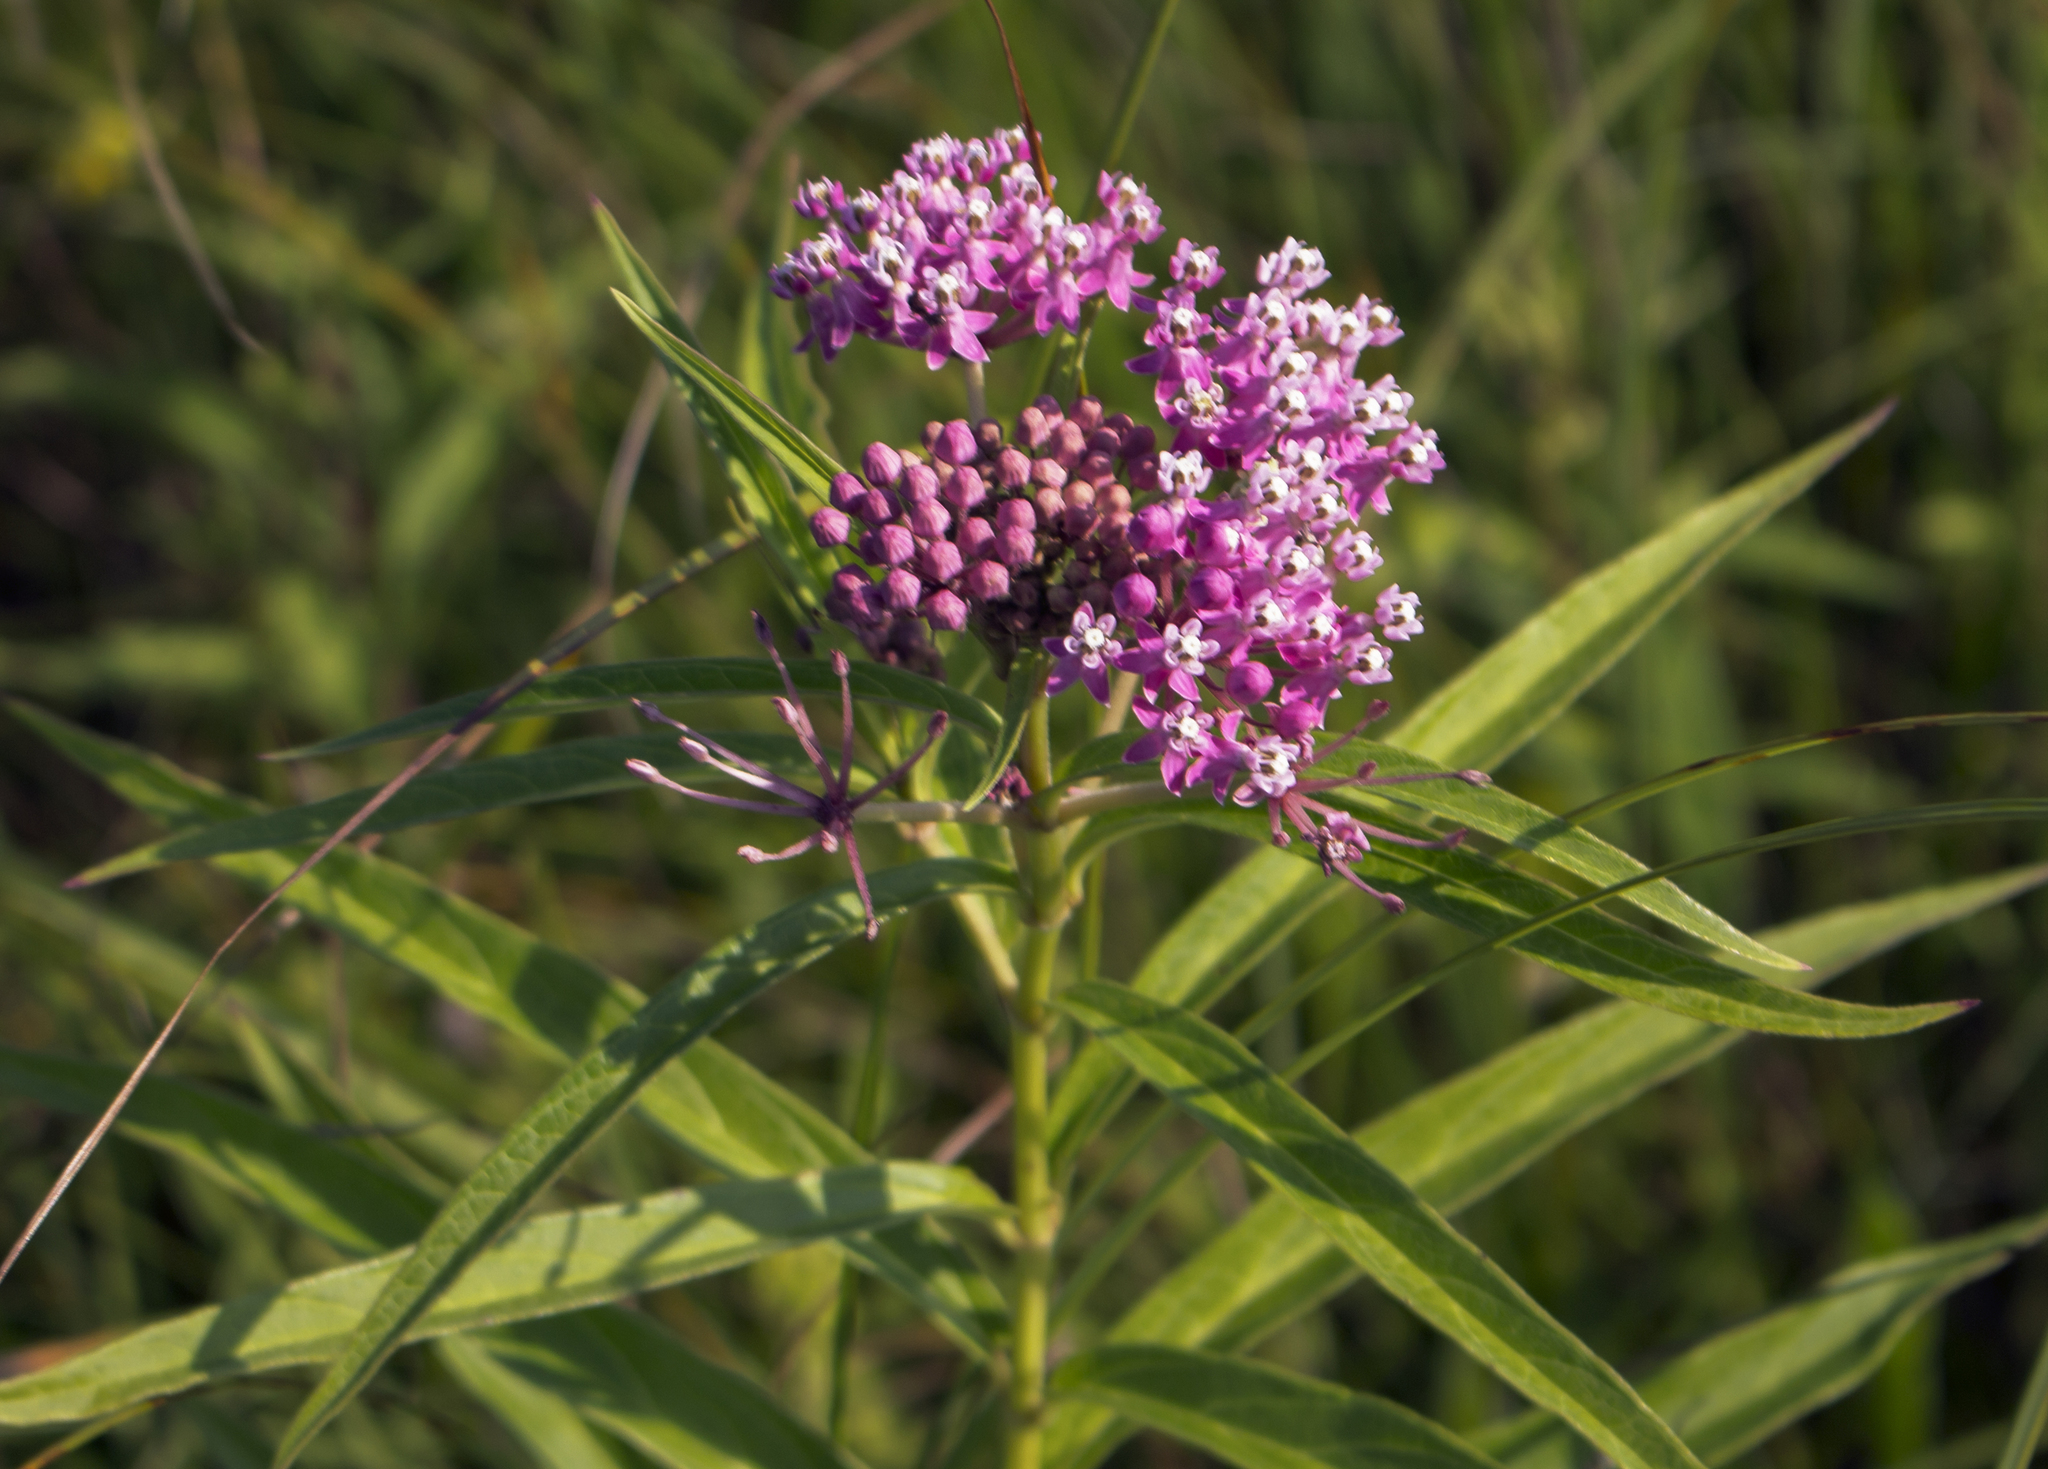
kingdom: Plantae
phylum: Tracheophyta
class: Magnoliopsida
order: Gentianales
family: Apocynaceae
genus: Asclepias
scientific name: Asclepias incarnata
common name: Swamp milkweed
